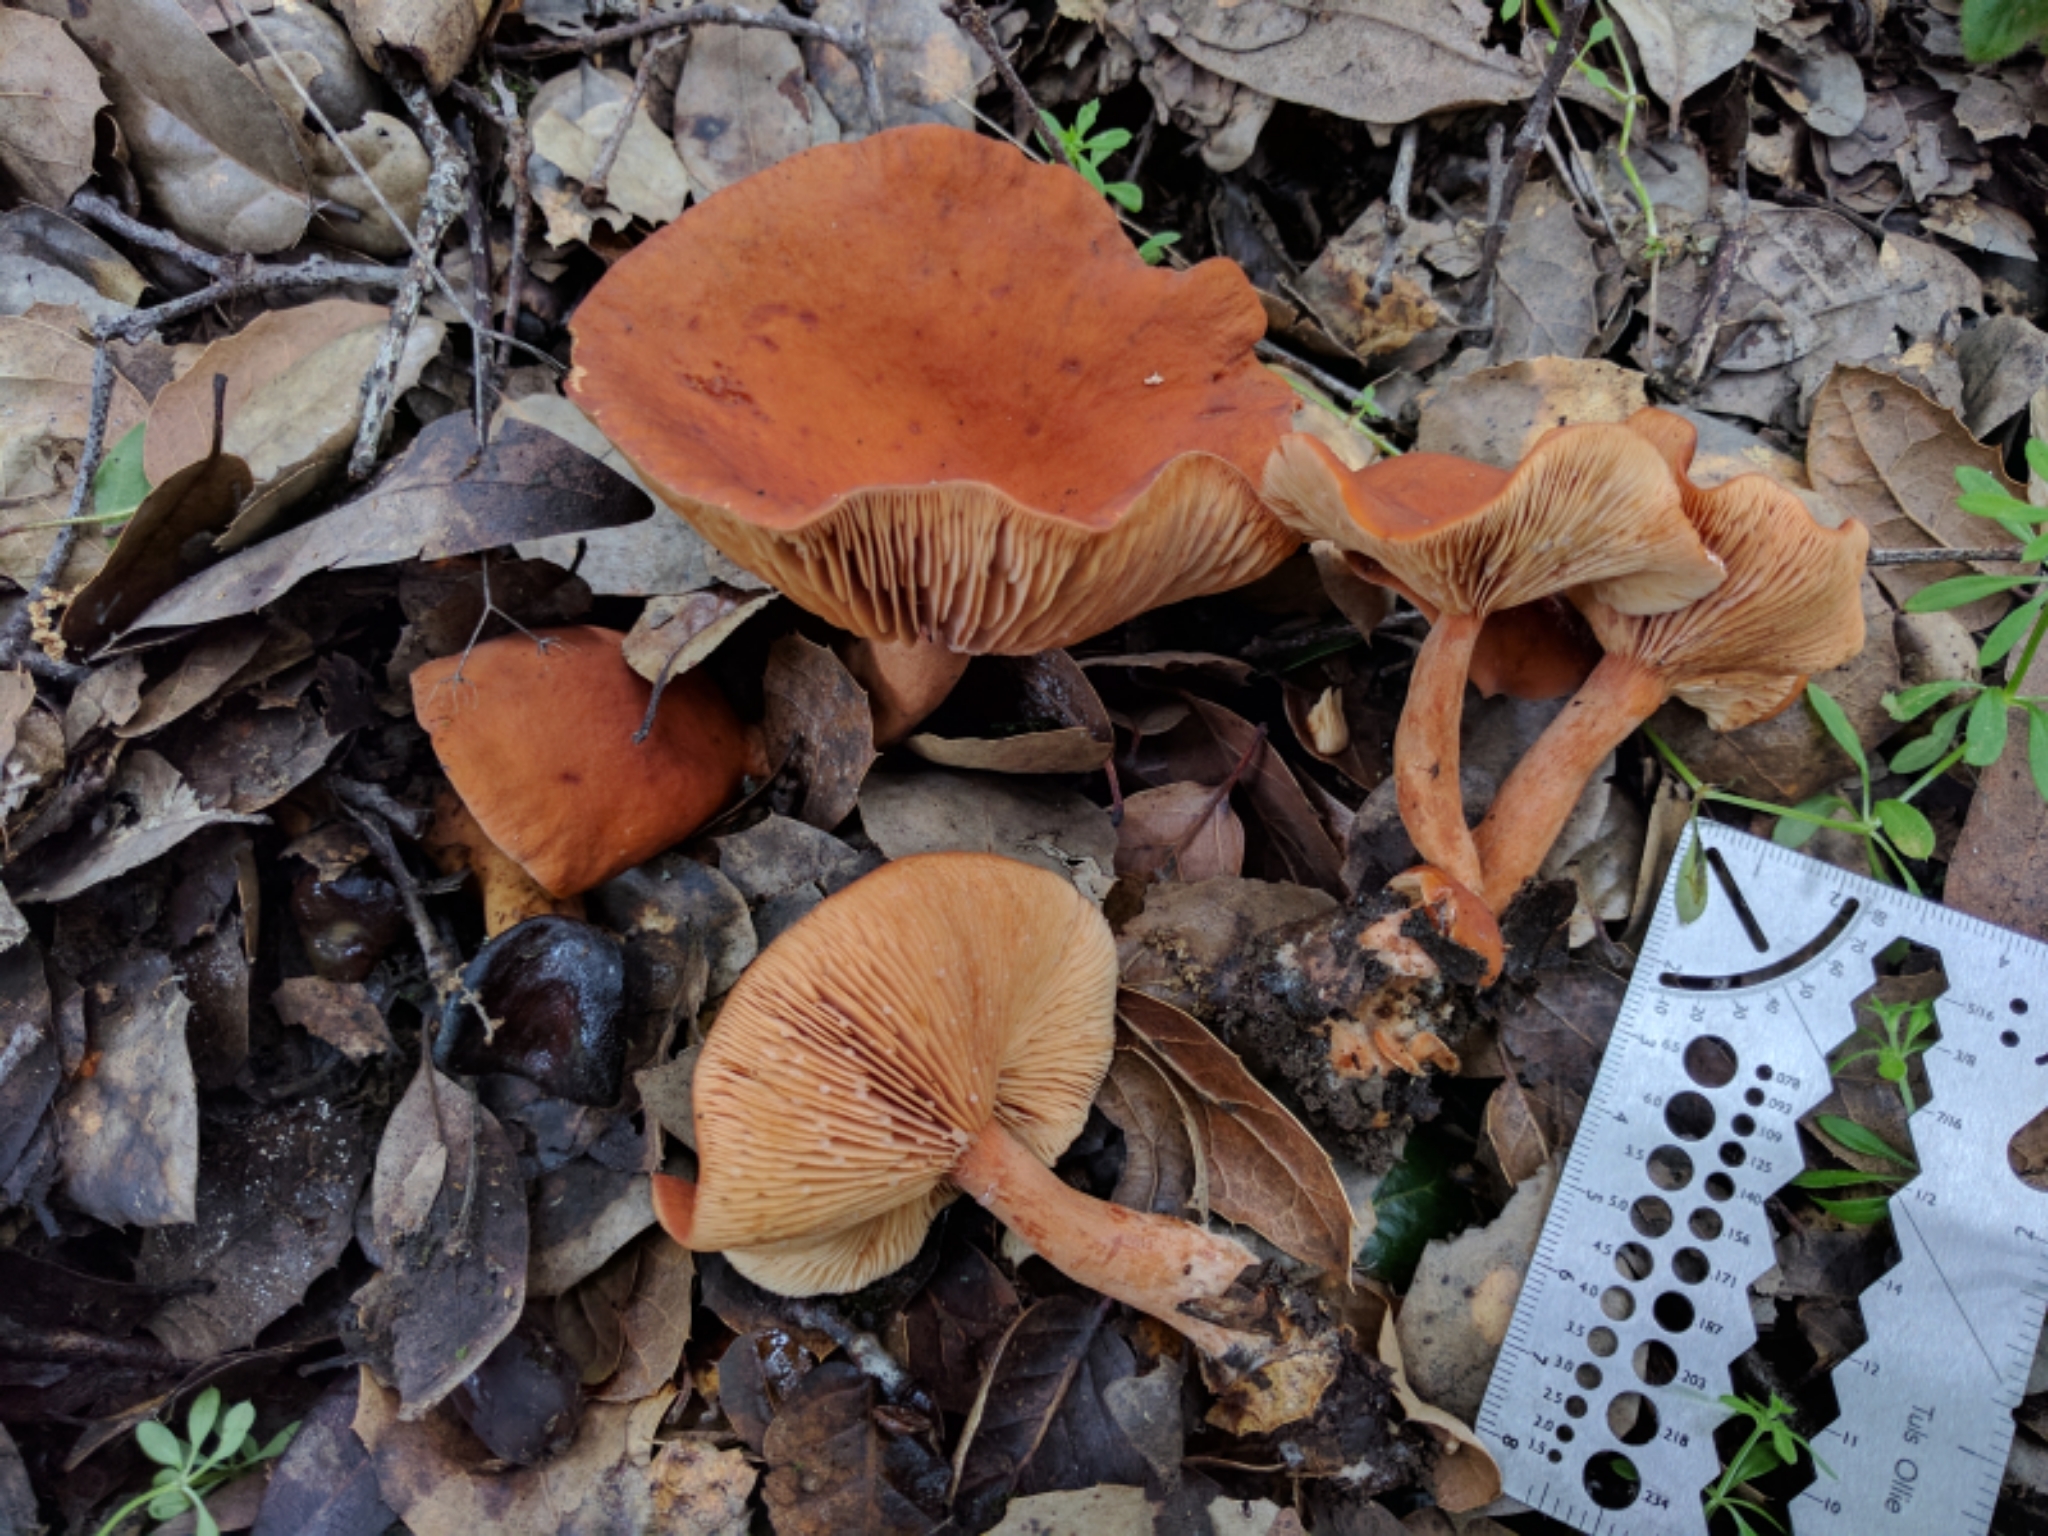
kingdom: Fungi
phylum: Basidiomycota
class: Agaricomycetes
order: Russulales
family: Russulaceae
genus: Lactarius
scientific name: Lactarius rubidus
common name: Candy cap
